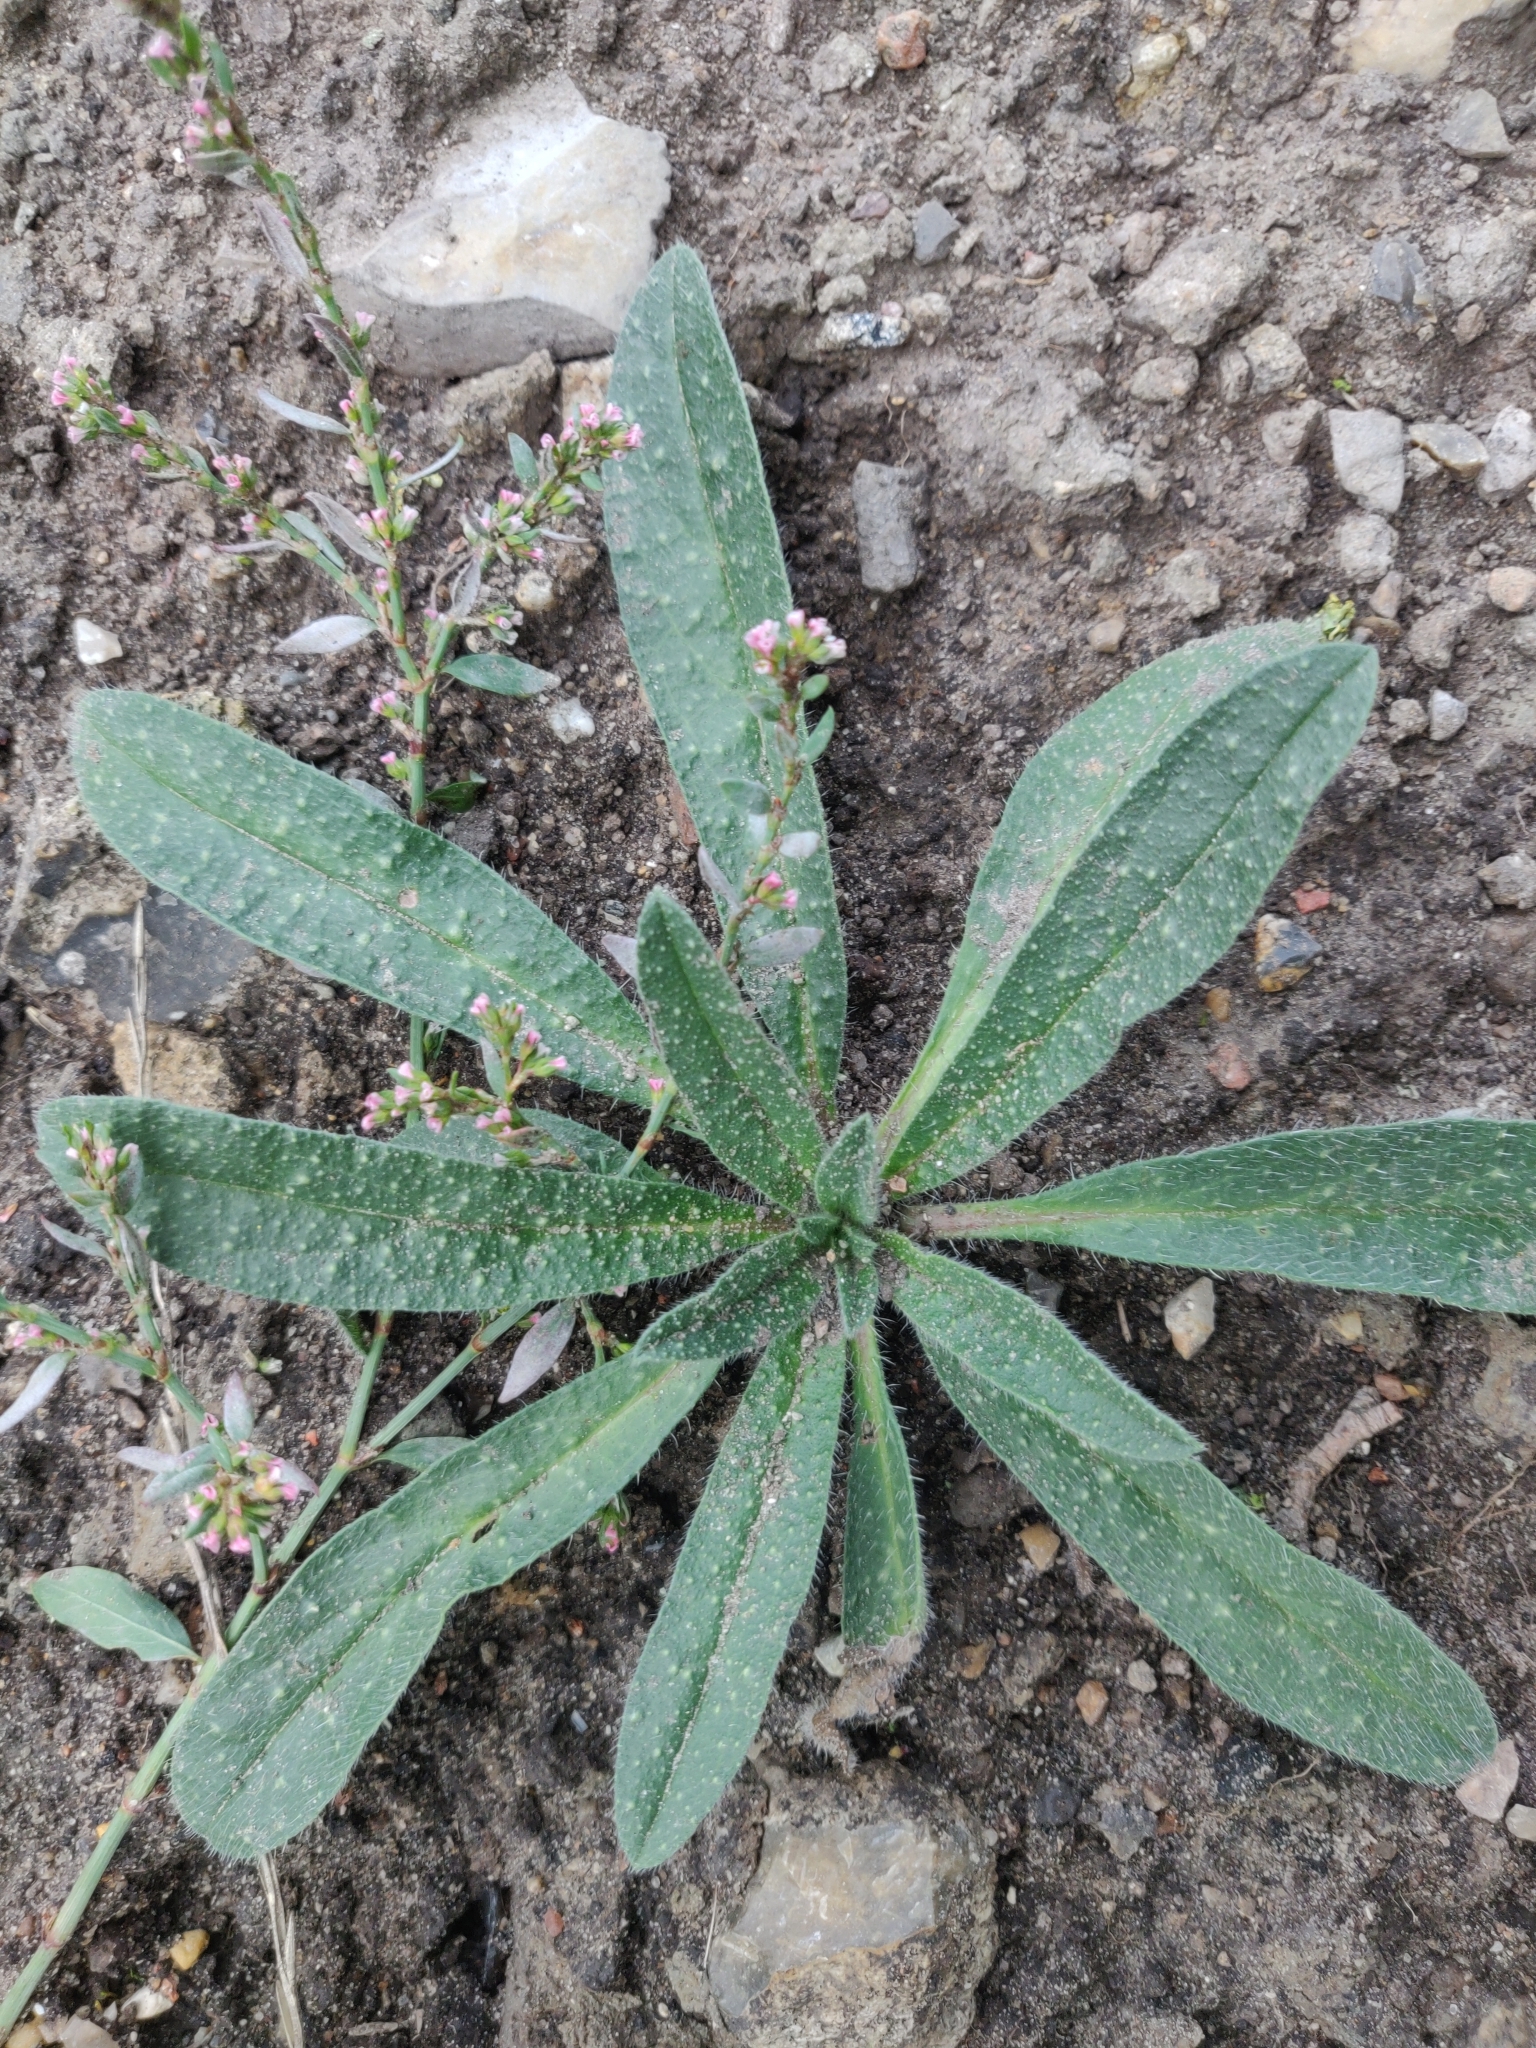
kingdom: Plantae
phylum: Tracheophyta
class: Magnoliopsida
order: Boraginales
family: Boraginaceae
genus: Echium
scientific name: Echium vulgare
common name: Common viper's bugloss
